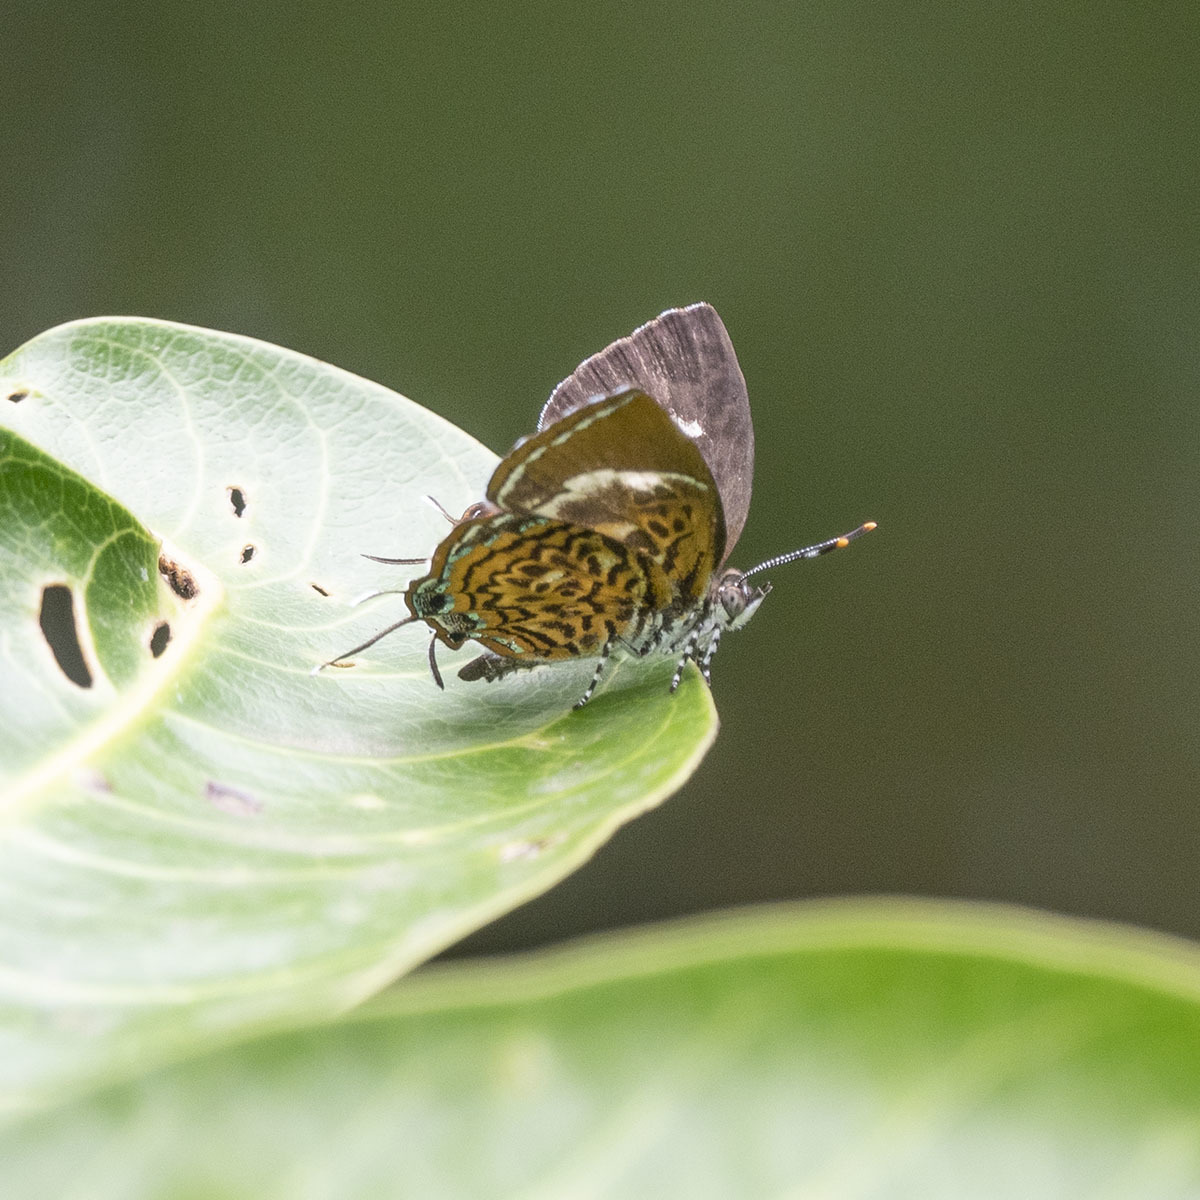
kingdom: Animalia
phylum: Arthropoda
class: Insecta
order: Lepidoptera
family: Lycaenidae
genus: Rathinda
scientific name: Rathinda amor
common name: Monkey puzzle
